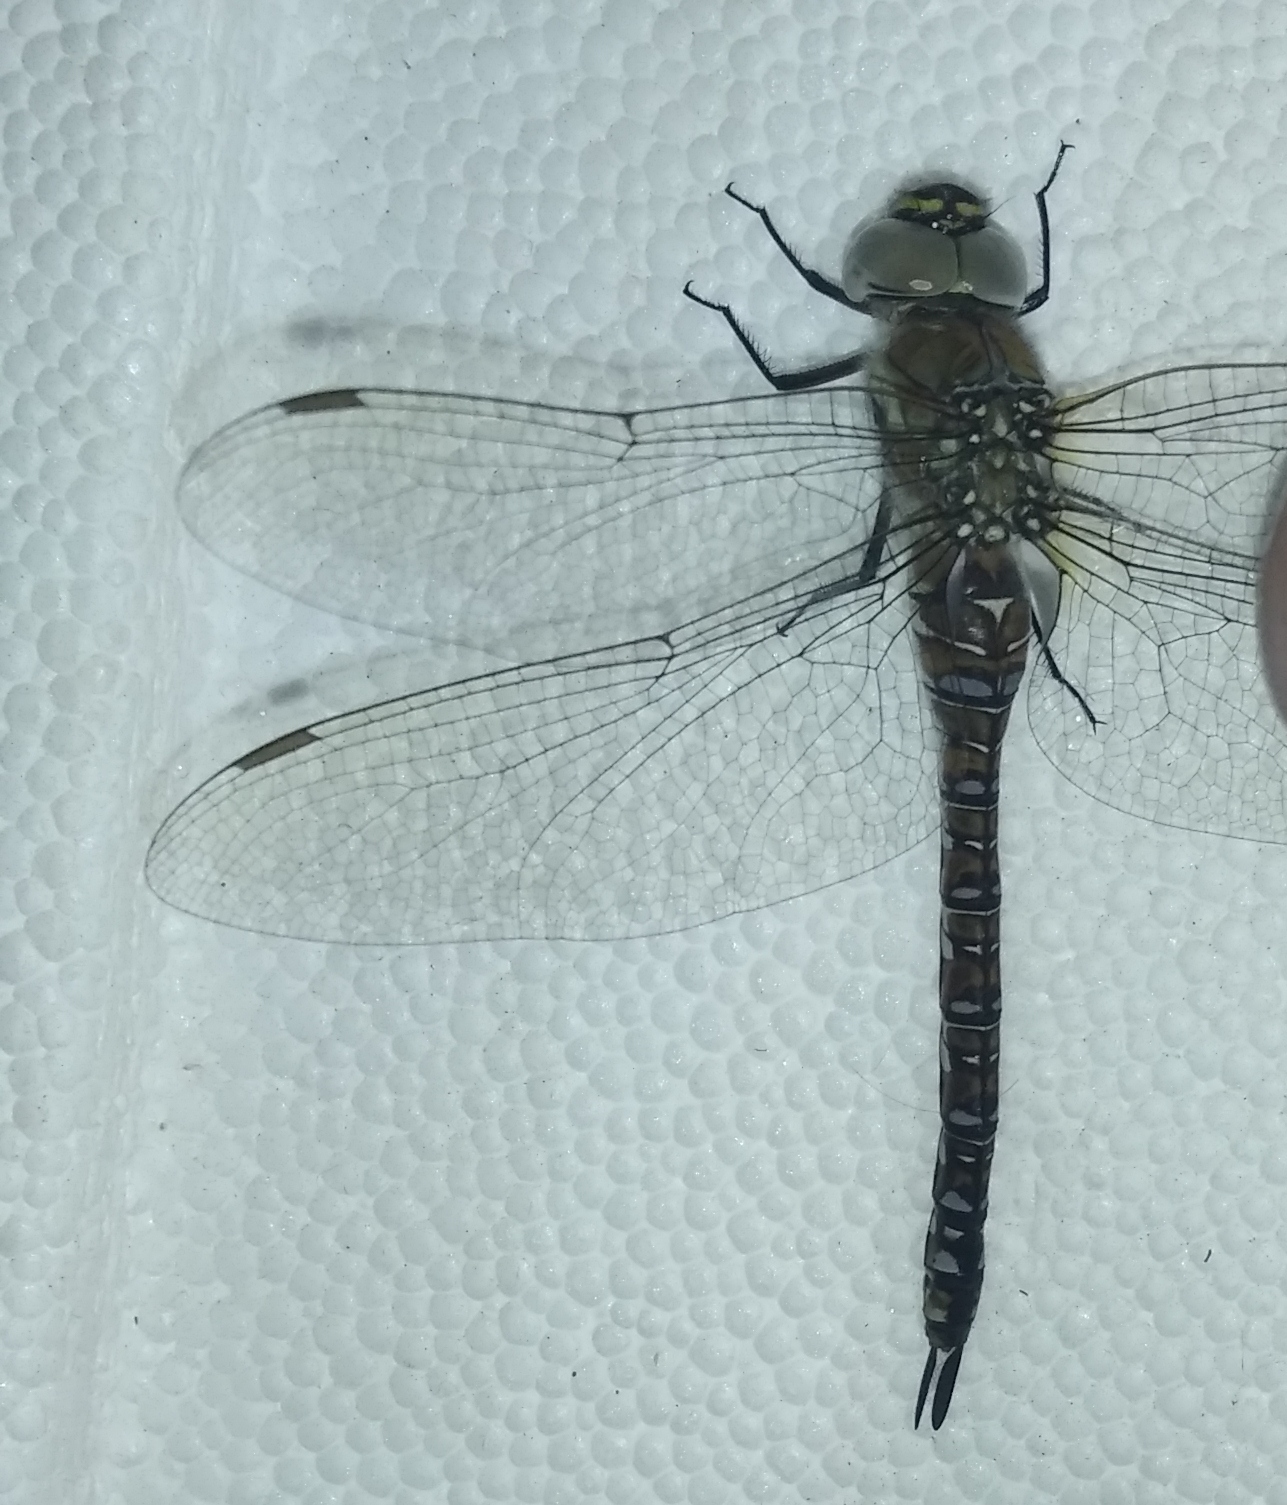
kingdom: Animalia
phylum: Arthropoda
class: Insecta
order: Odonata
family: Aeshnidae
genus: Aeshna
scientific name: Aeshna mixta
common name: Migrant hawker
